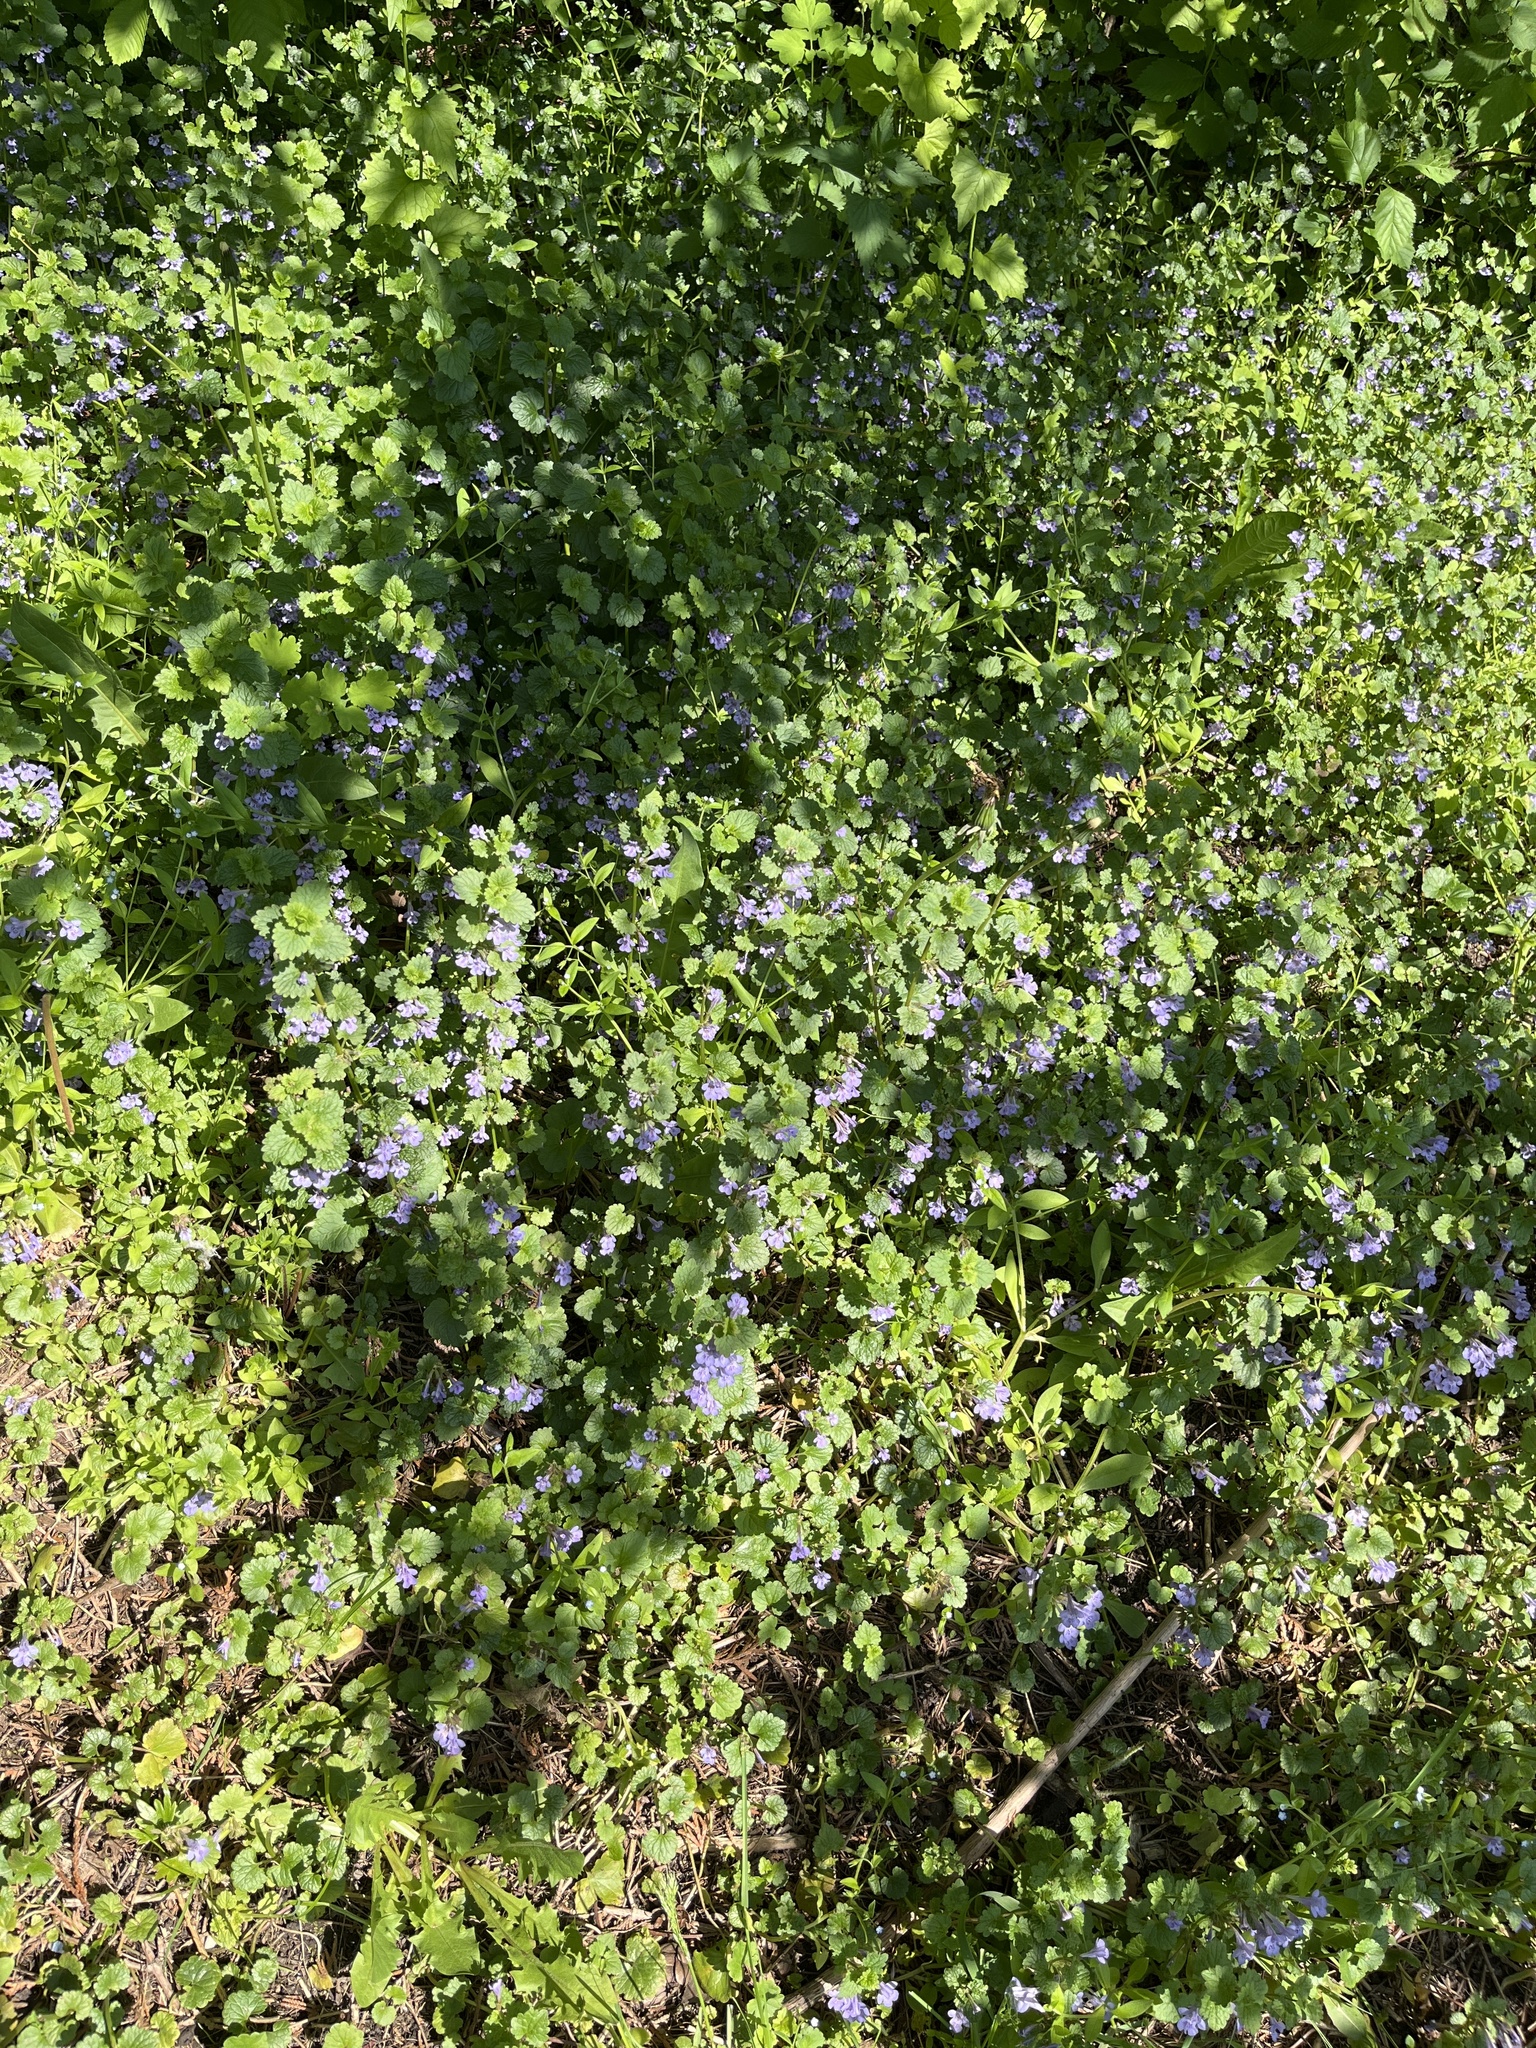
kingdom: Plantae
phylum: Tracheophyta
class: Magnoliopsida
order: Lamiales
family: Lamiaceae
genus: Glechoma
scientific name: Glechoma hederacea
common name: Ground ivy
